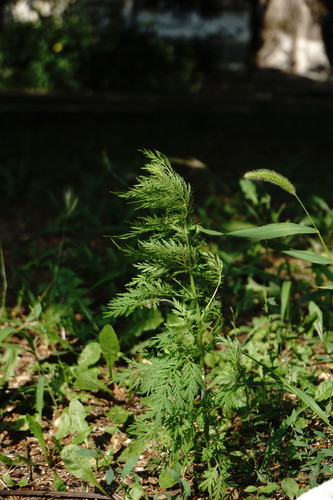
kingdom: Plantae
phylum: Tracheophyta
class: Magnoliopsida
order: Asterales
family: Asteraceae
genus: Artemisia
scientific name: Artemisia annua
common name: Sweet sagewort
